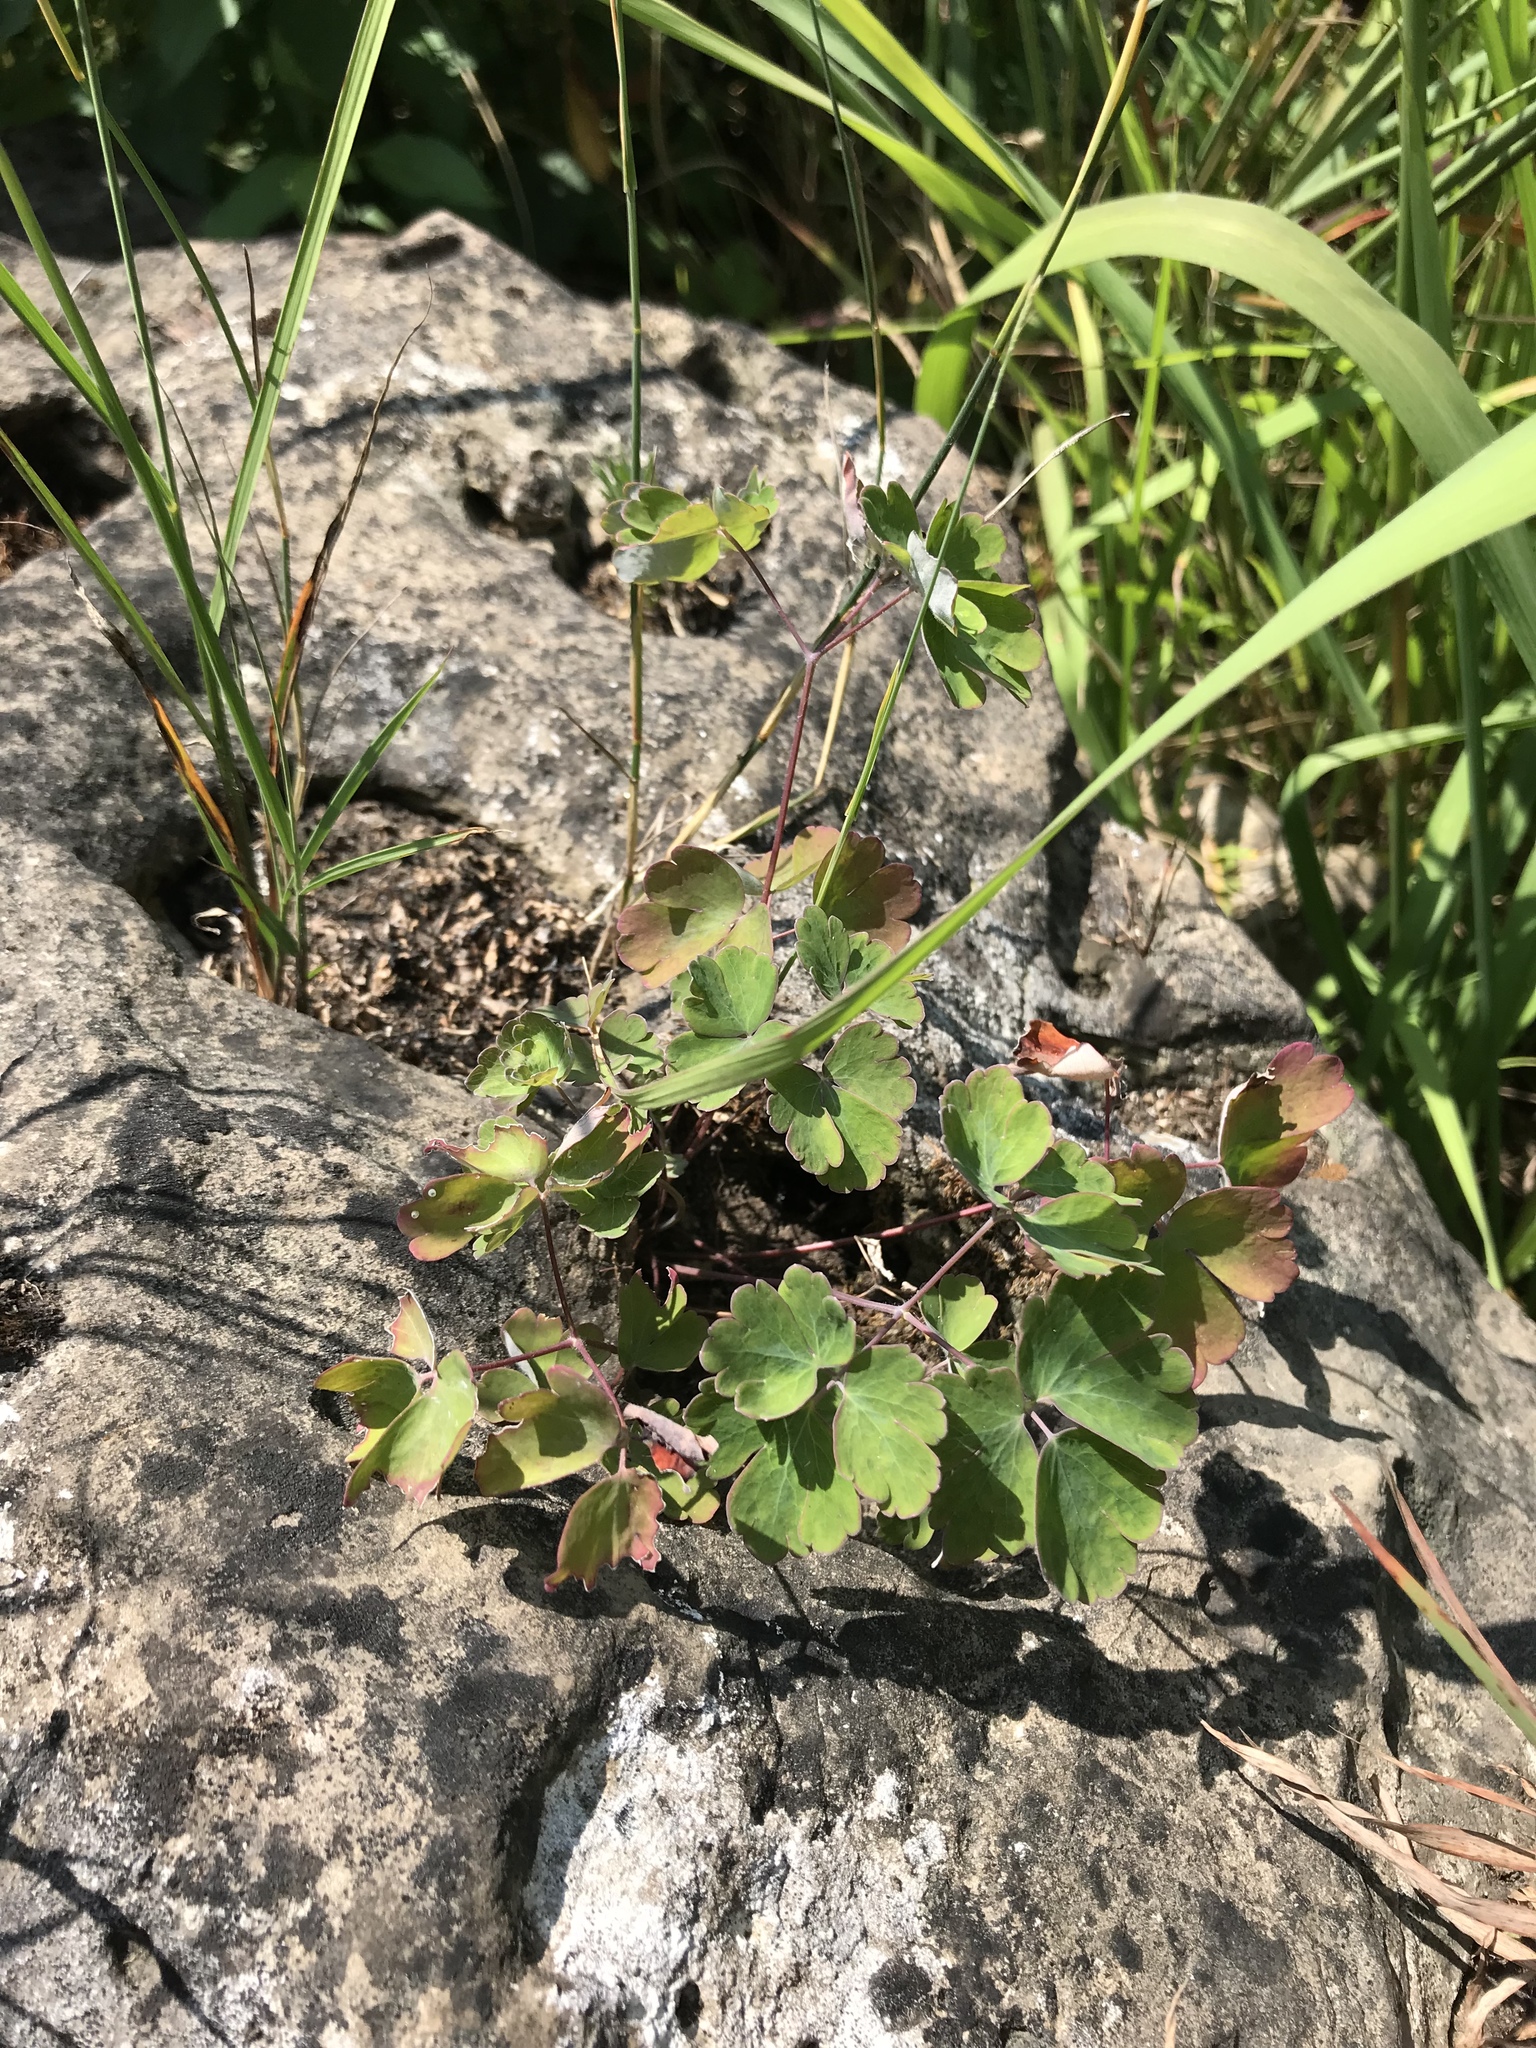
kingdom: Plantae
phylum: Tracheophyta
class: Magnoliopsida
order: Ranunculales
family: Ranunculaceae
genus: Aquilegia
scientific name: Aquilegia canadensis
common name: American columbine
